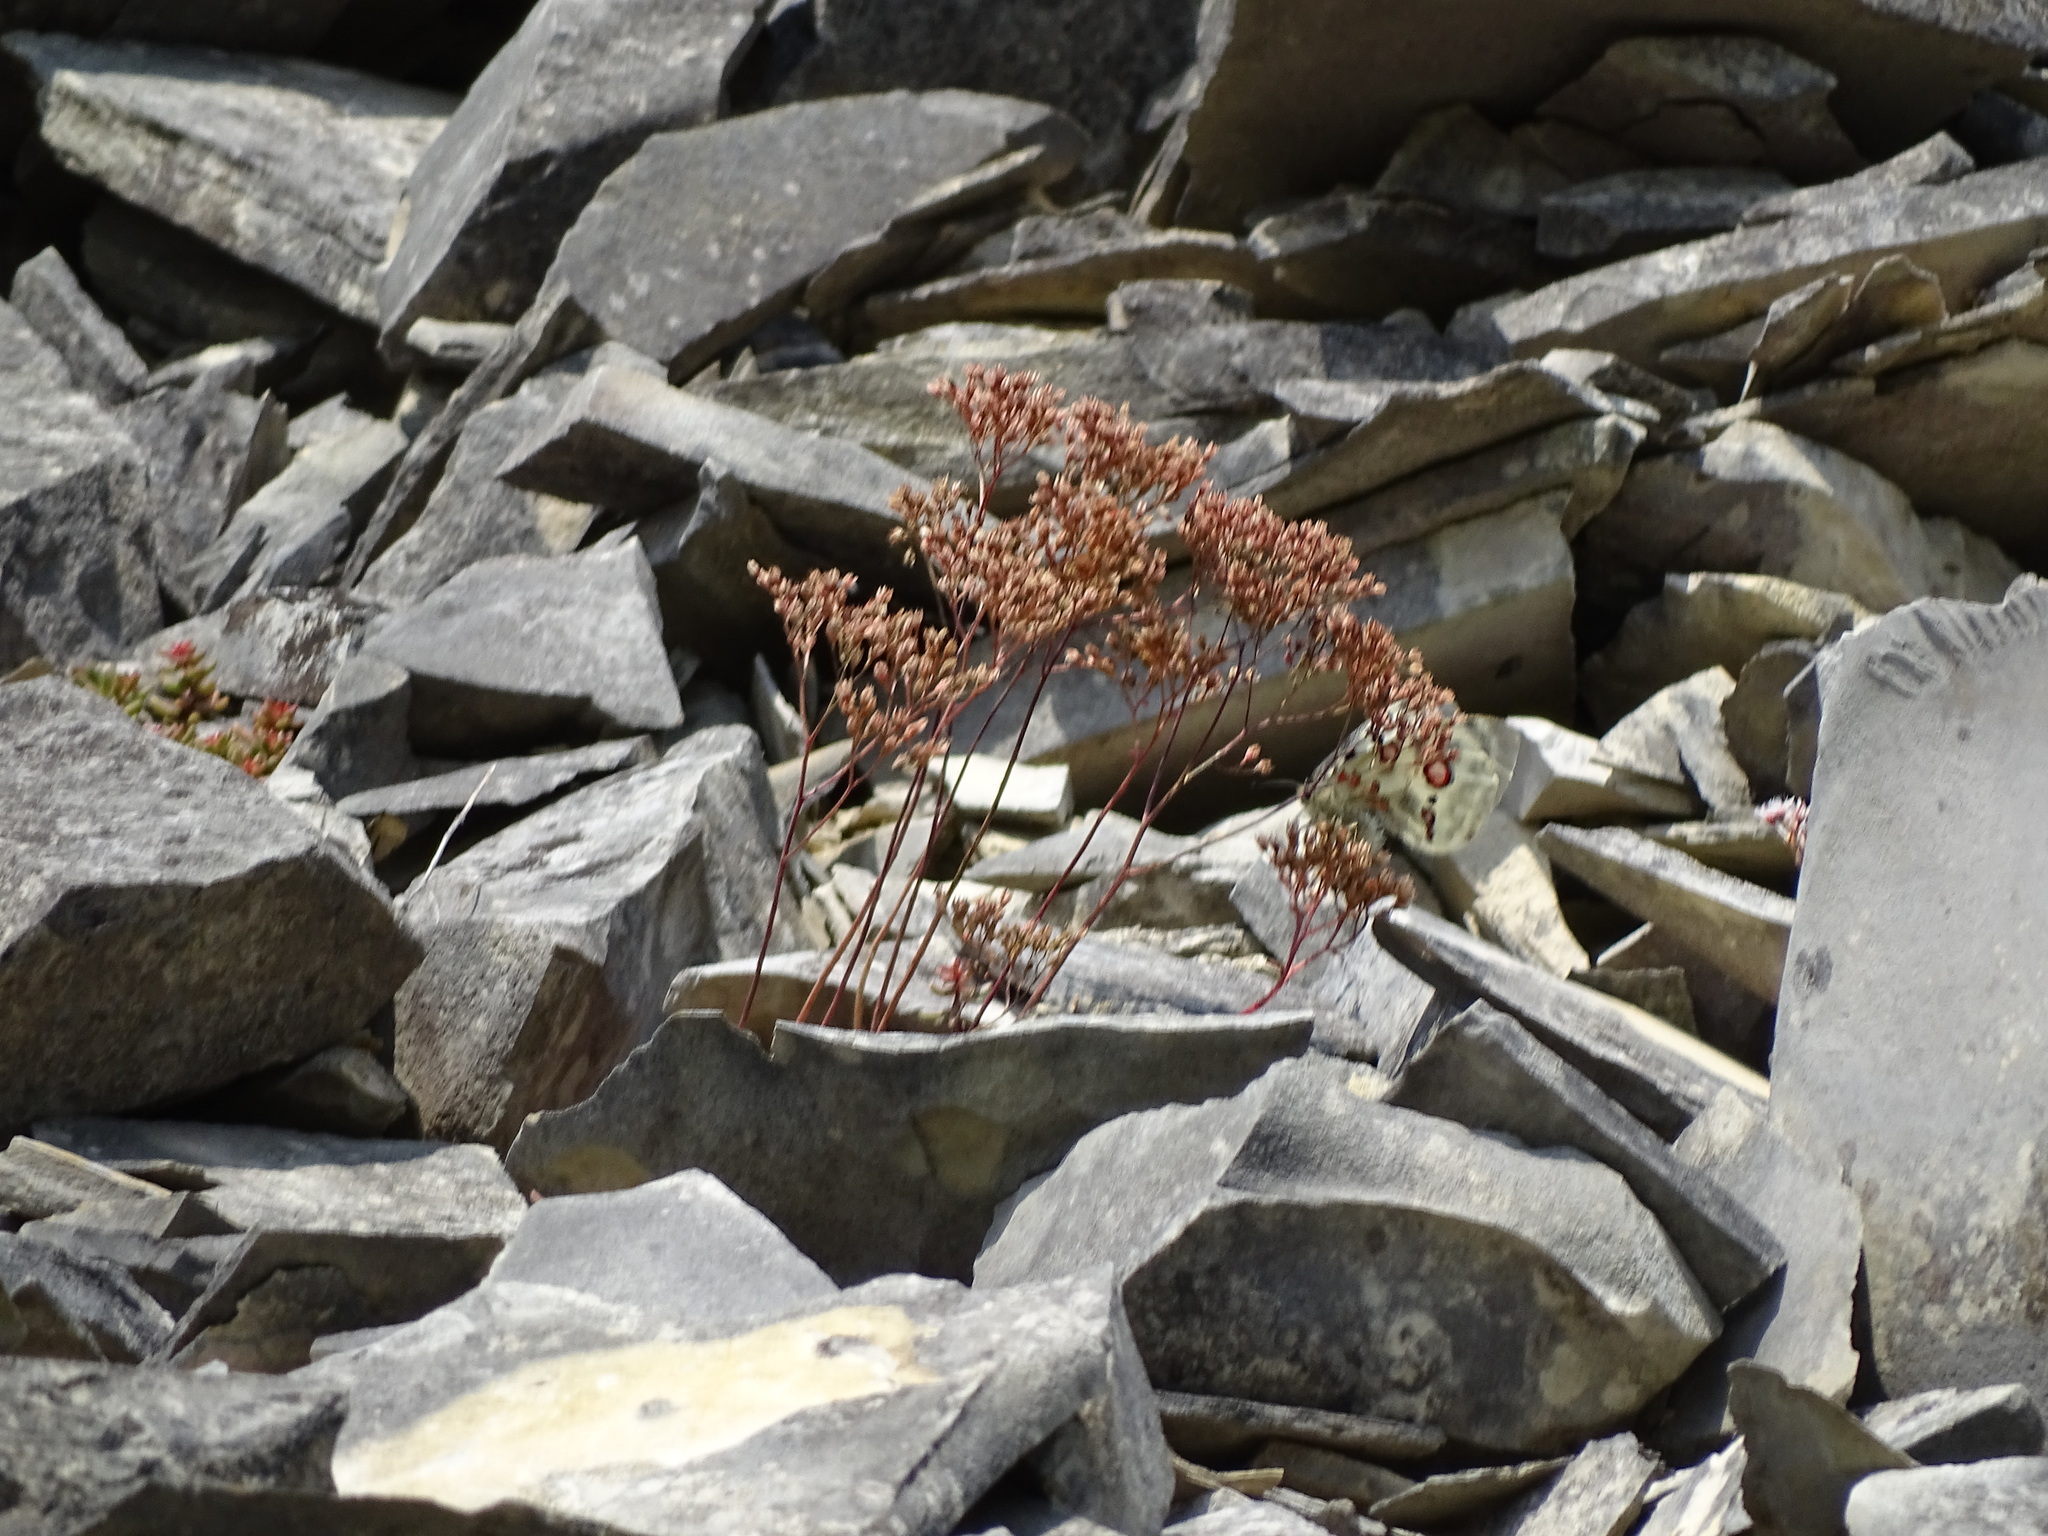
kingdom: Animalia
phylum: Arthropoda
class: Insecta
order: Lepidoptera
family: Papilionidae
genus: Parnassius
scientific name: Parnassius apollo
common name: Apollo
